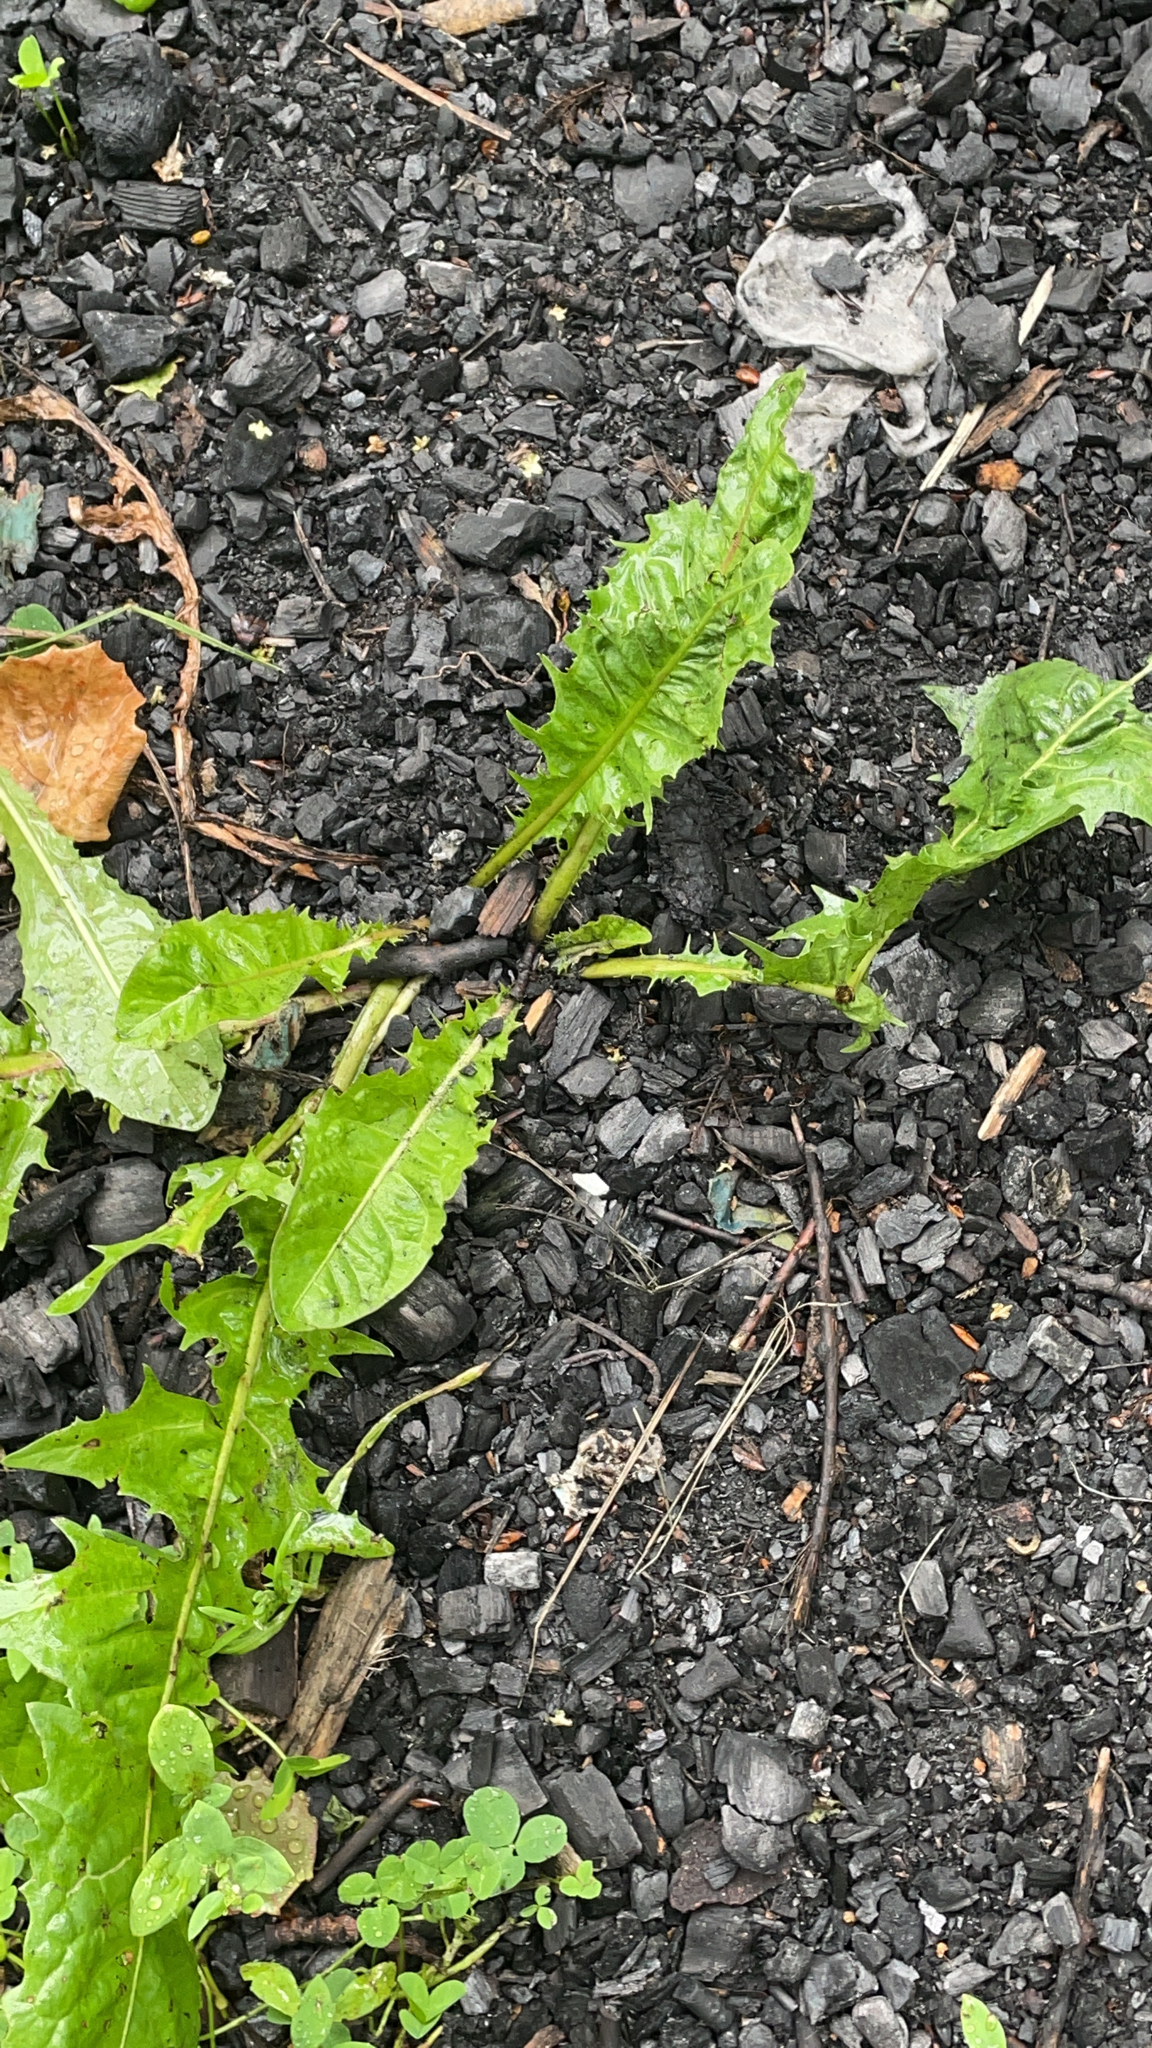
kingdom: Plantae
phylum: Tracheophyta
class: Magnoliopsida
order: Asterales
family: Asteraceae
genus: Taraxacum
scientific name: Taraxacum officinale
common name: Common dandelion
